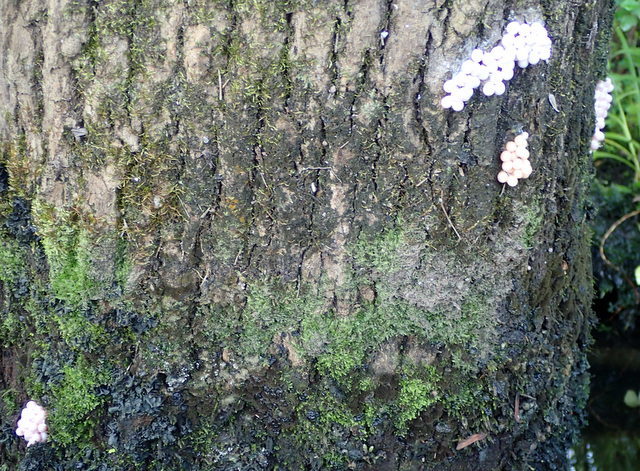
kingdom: Animalia
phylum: Mollusca
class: Gastropoda
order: Architaenioglossa
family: Ampullariidae
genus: Pomacea
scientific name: Pomacea paludosa
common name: Florida applesnail
